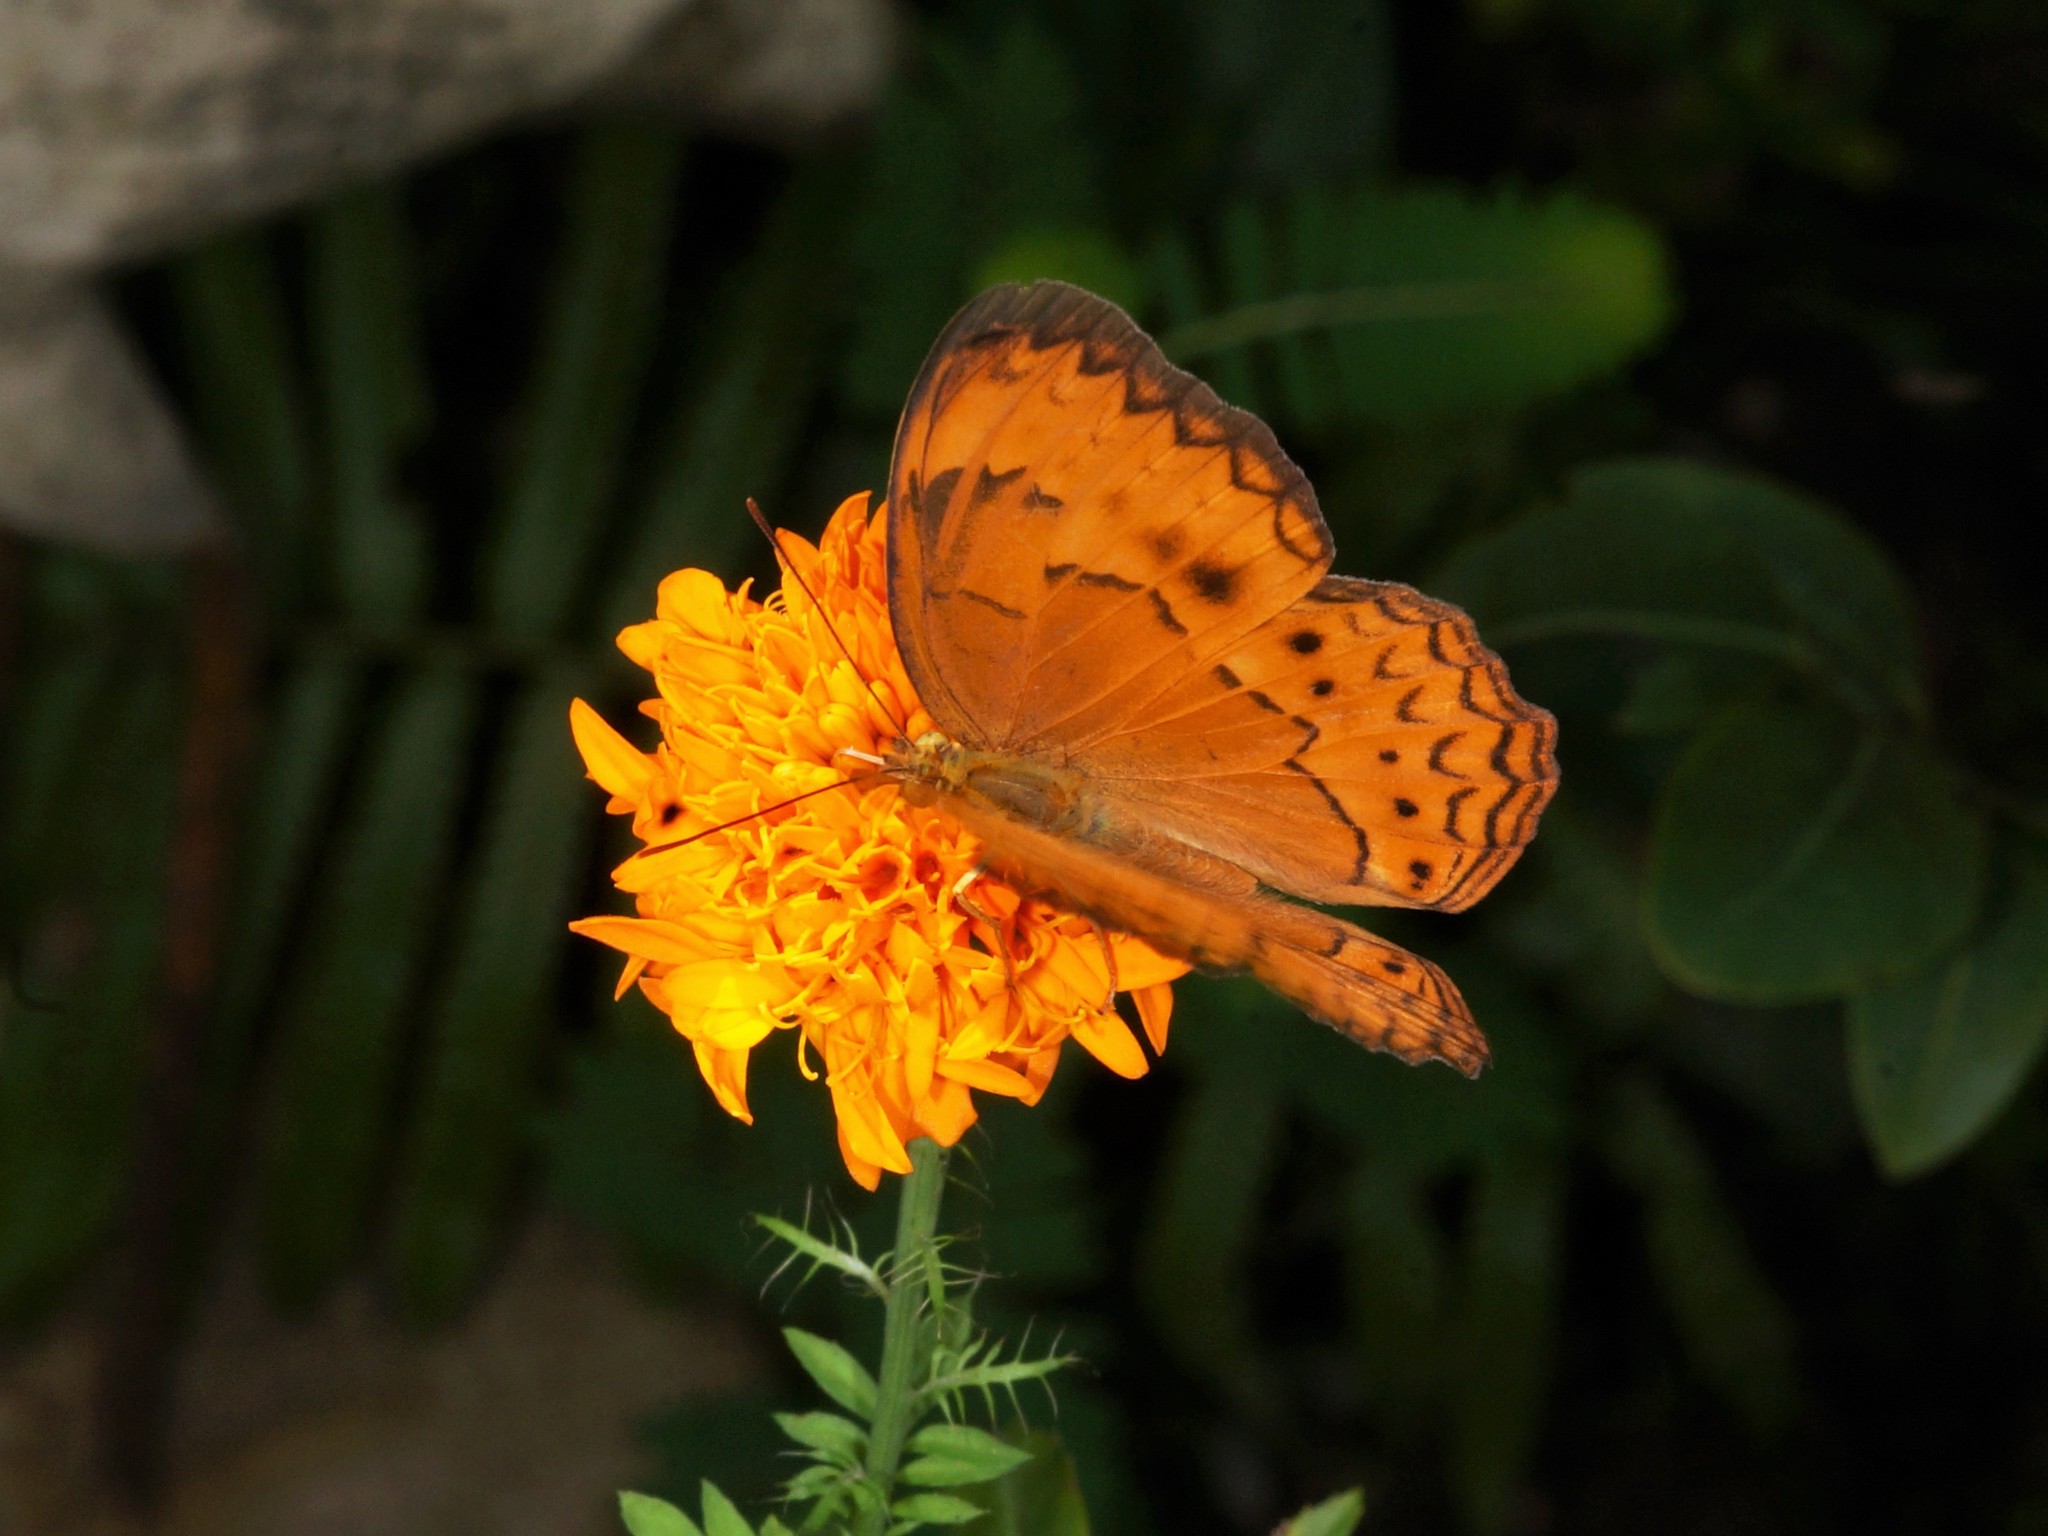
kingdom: Animalia
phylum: Arthropoda
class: Insecta
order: Lepidoptera
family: Nymphalidae
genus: Cirrochroa
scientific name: Cirrochroa surya
